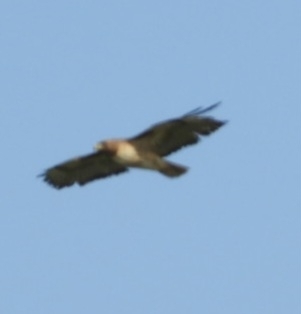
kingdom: Animalia
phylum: Chordata
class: Aves
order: Accipitriformes
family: Accipitridae
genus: Buteo
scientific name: Buteo jamaicensis
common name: Red-tailed hawk
